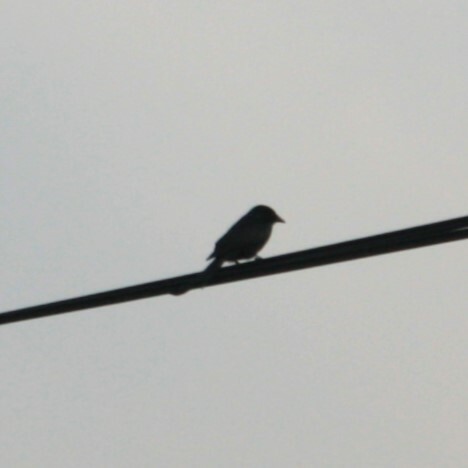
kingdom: Animalia
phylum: Chordata
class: Aves
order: Passeriformes
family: Dicruridae
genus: Dicrurus
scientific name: Dicrurus macrocercus
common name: Black drongo
